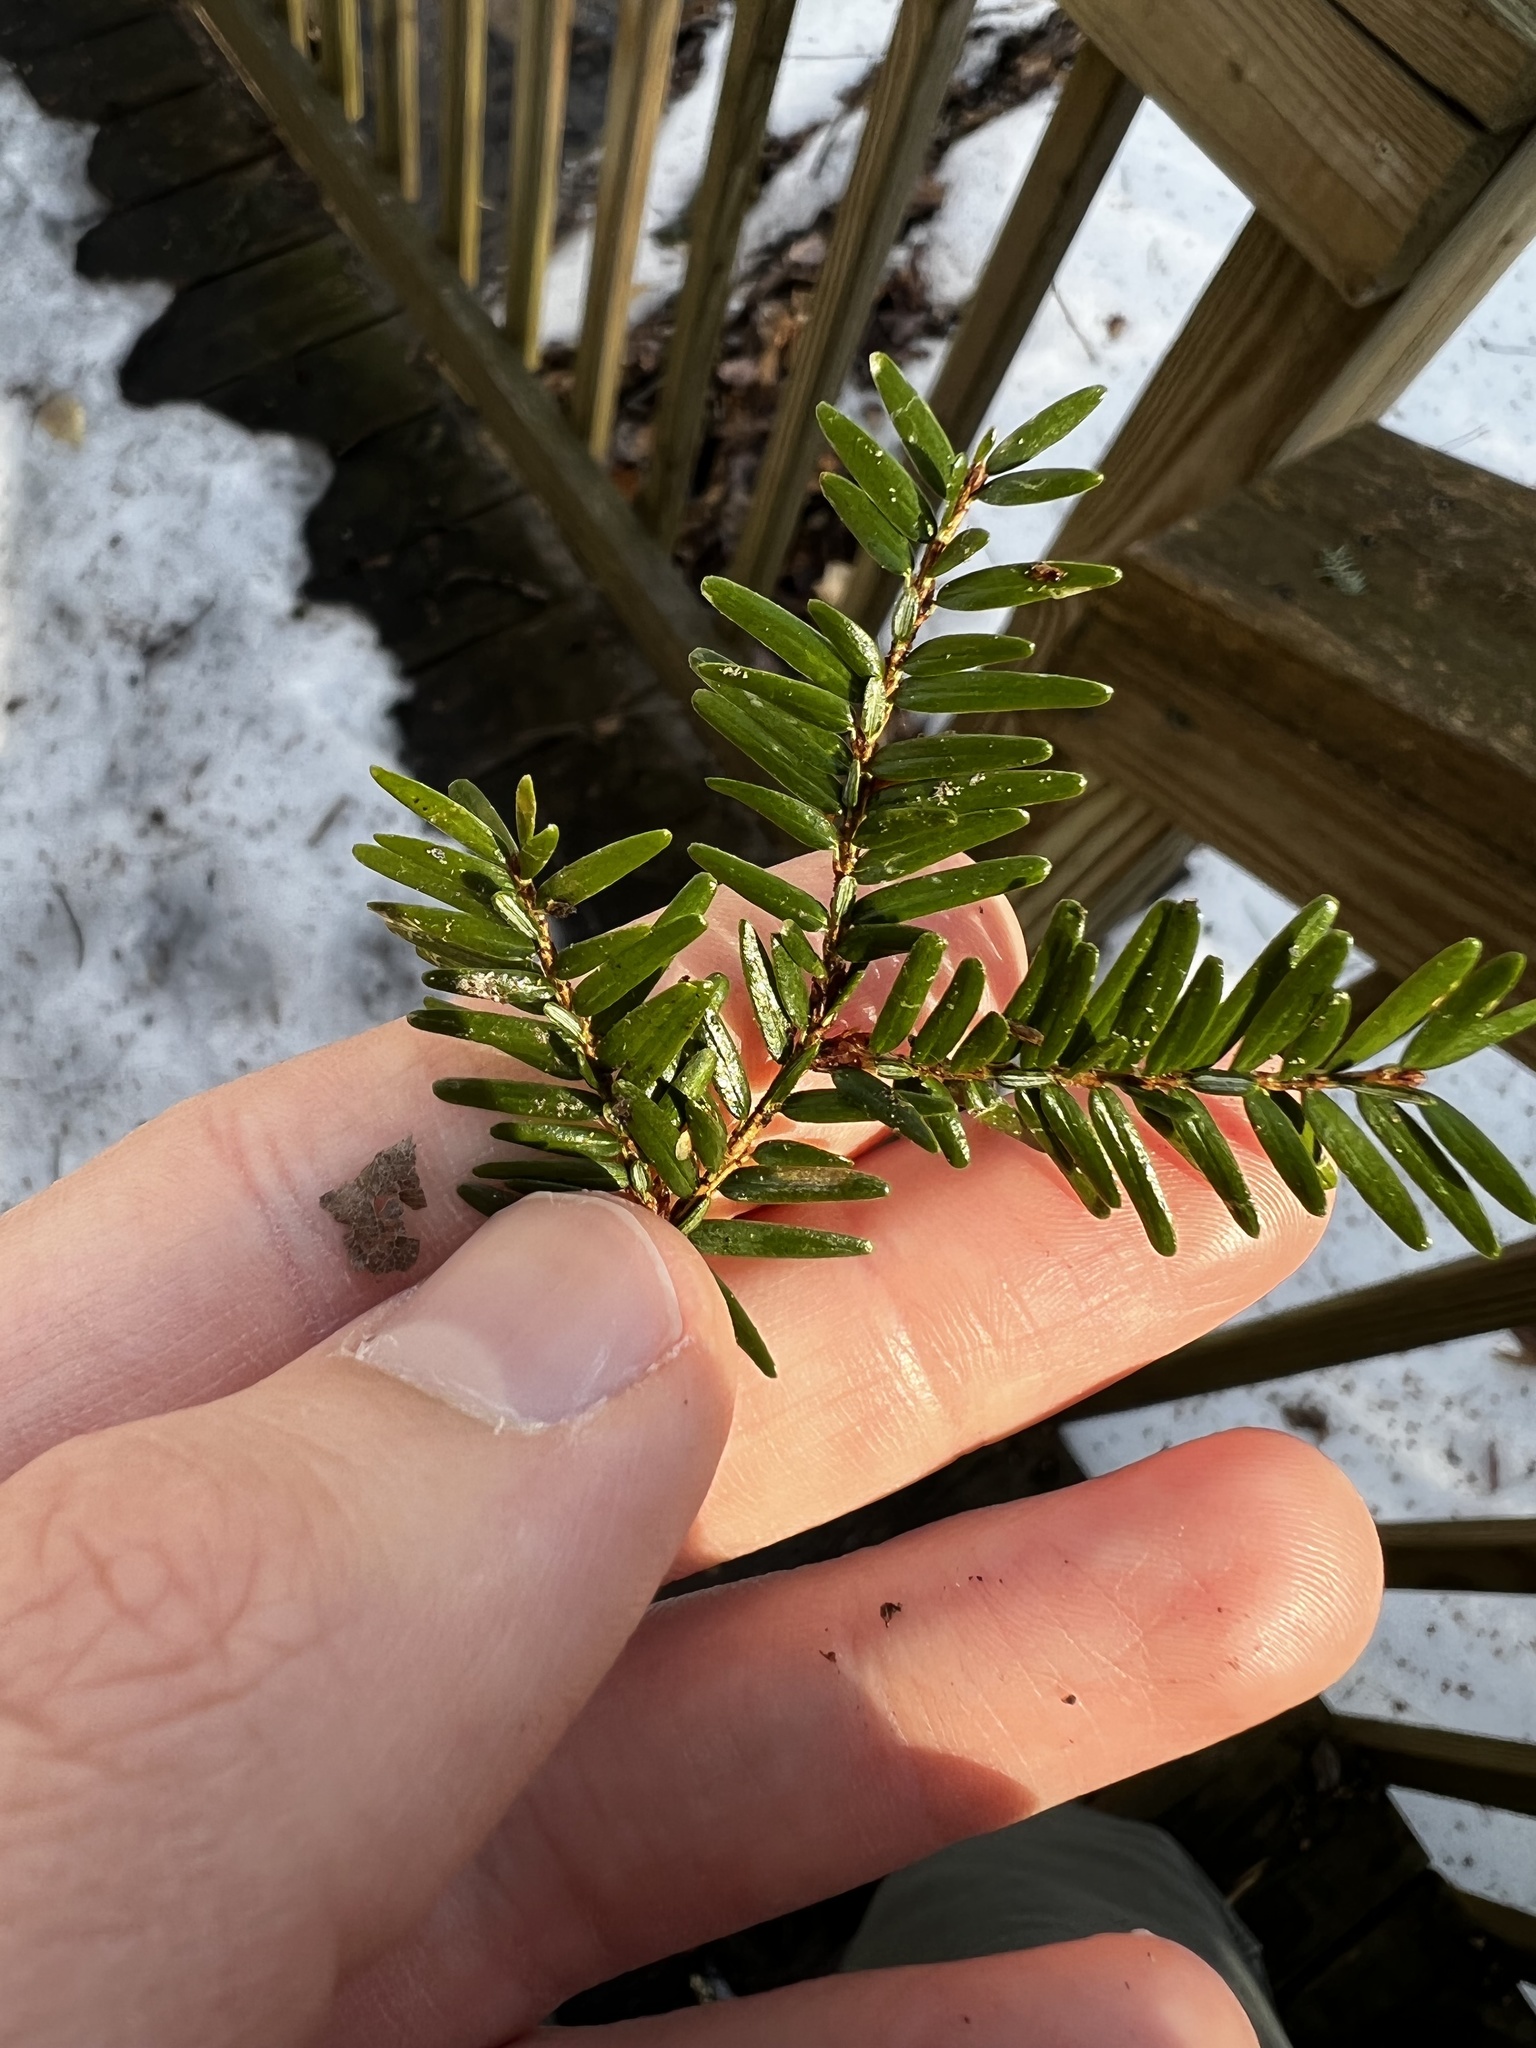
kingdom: Plantae
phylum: Tracheophyta
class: Pinopsida
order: Pinales
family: Pinaceae
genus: Tsuga
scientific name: Tsuga canadensis
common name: Eastern hemlock
